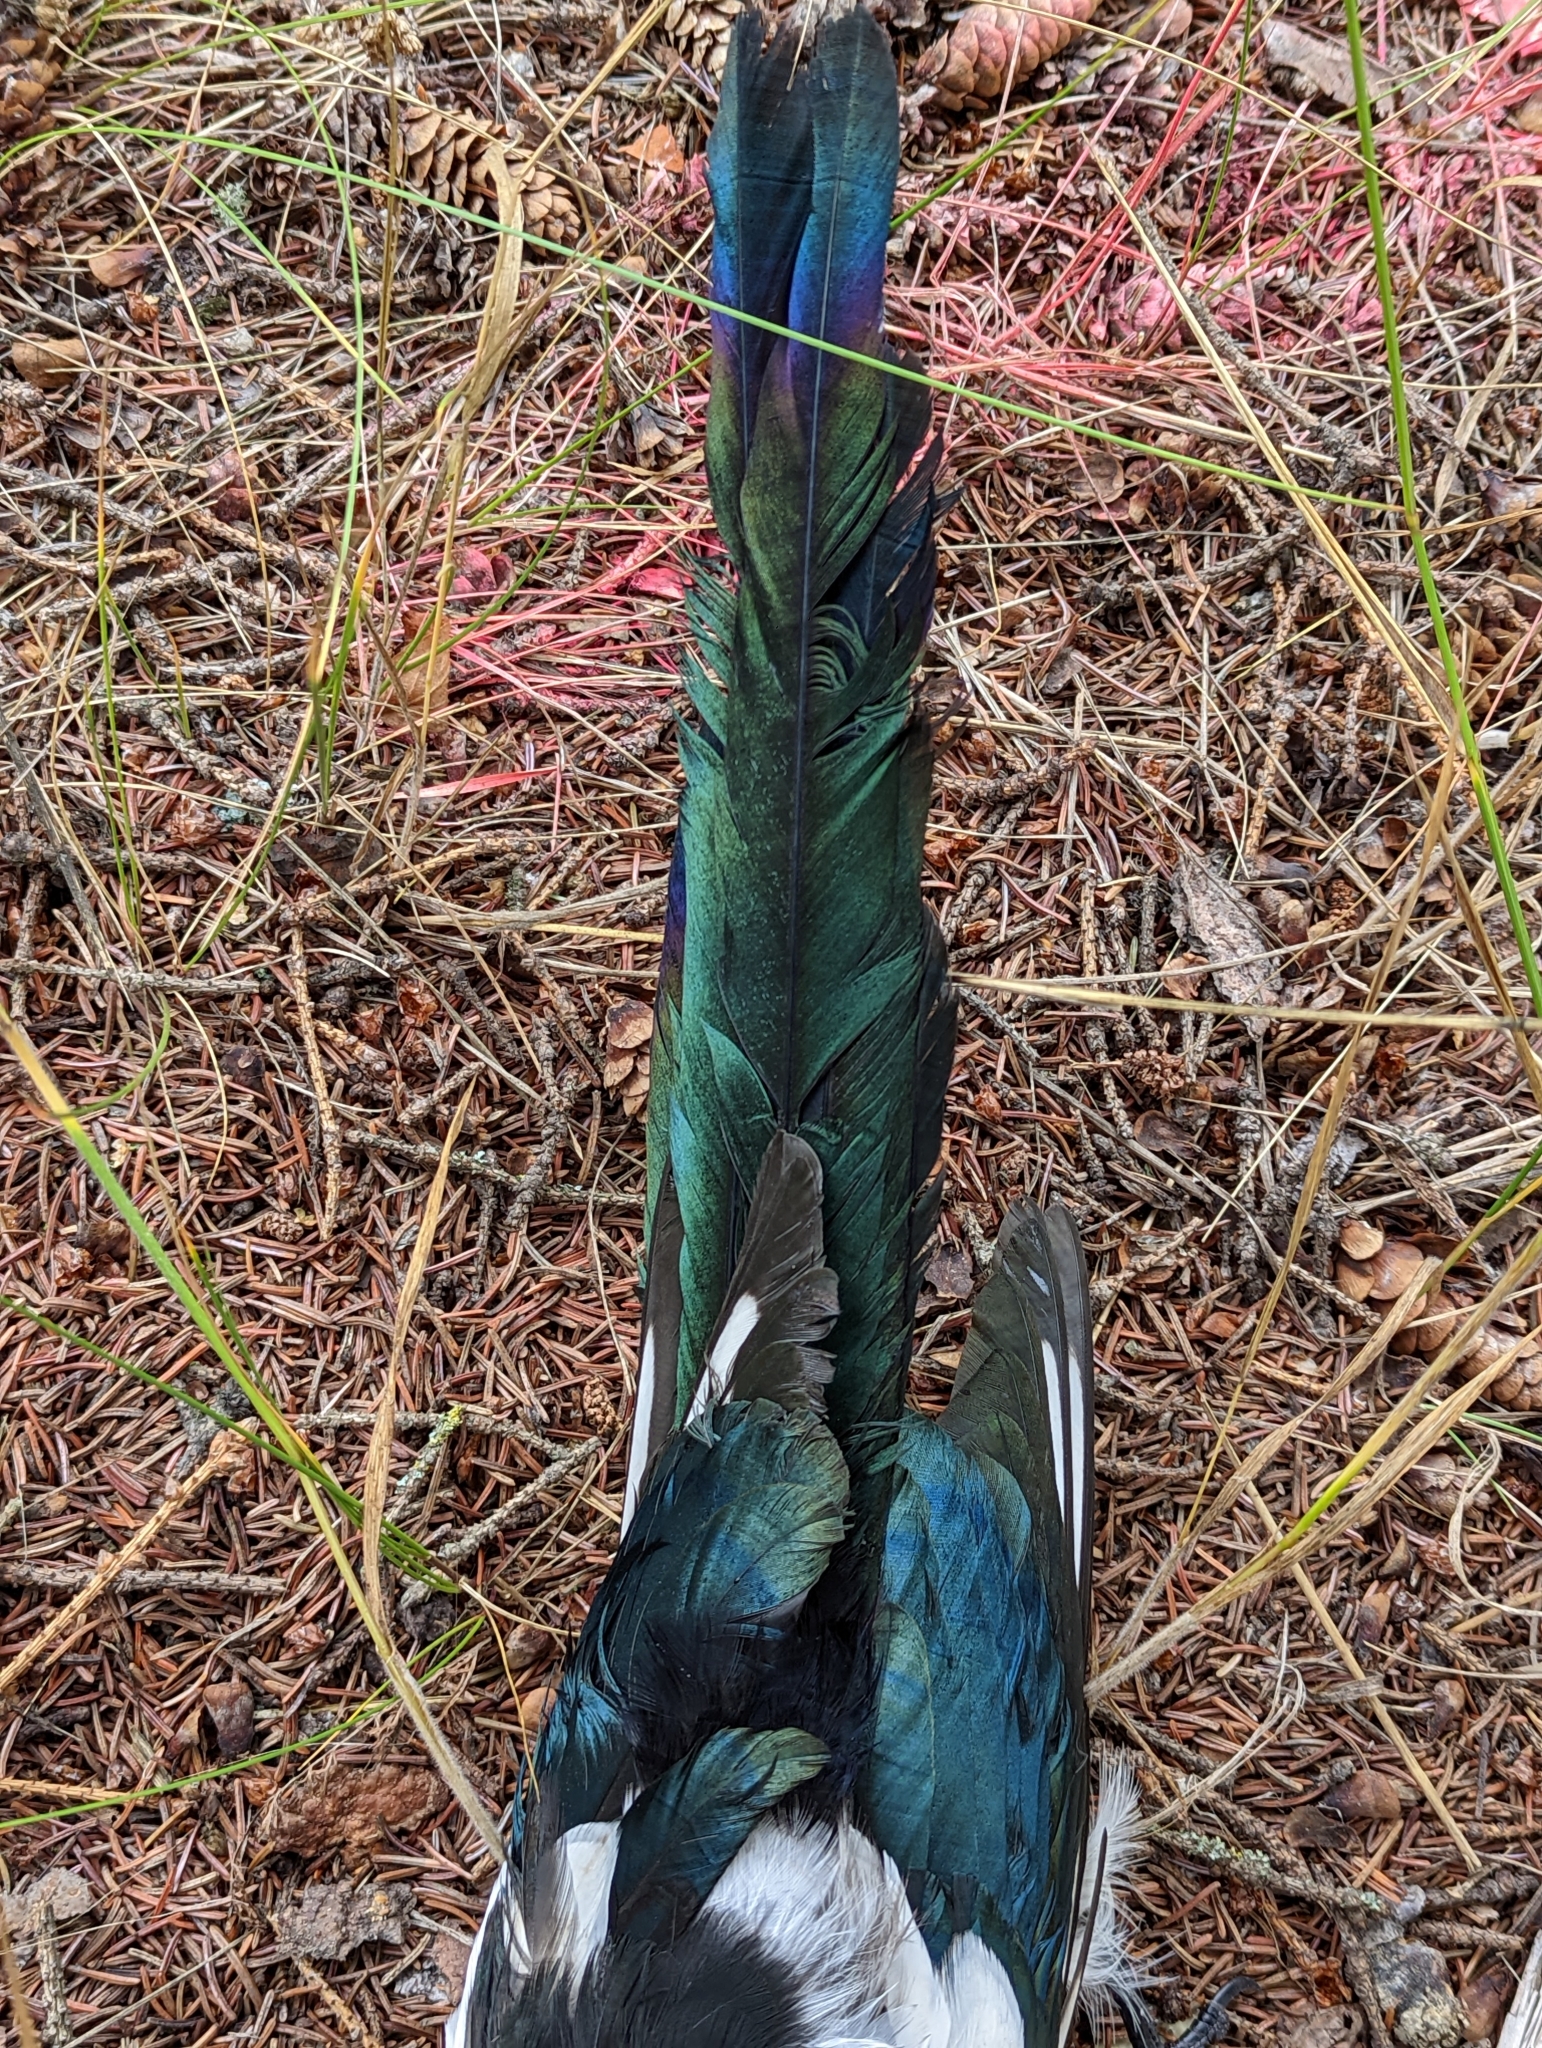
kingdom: Animalia
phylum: Chordata
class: Aves
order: Passeriformes
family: Corvidae
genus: Pica
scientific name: Pica hudsonia
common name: Black-billed magpie
